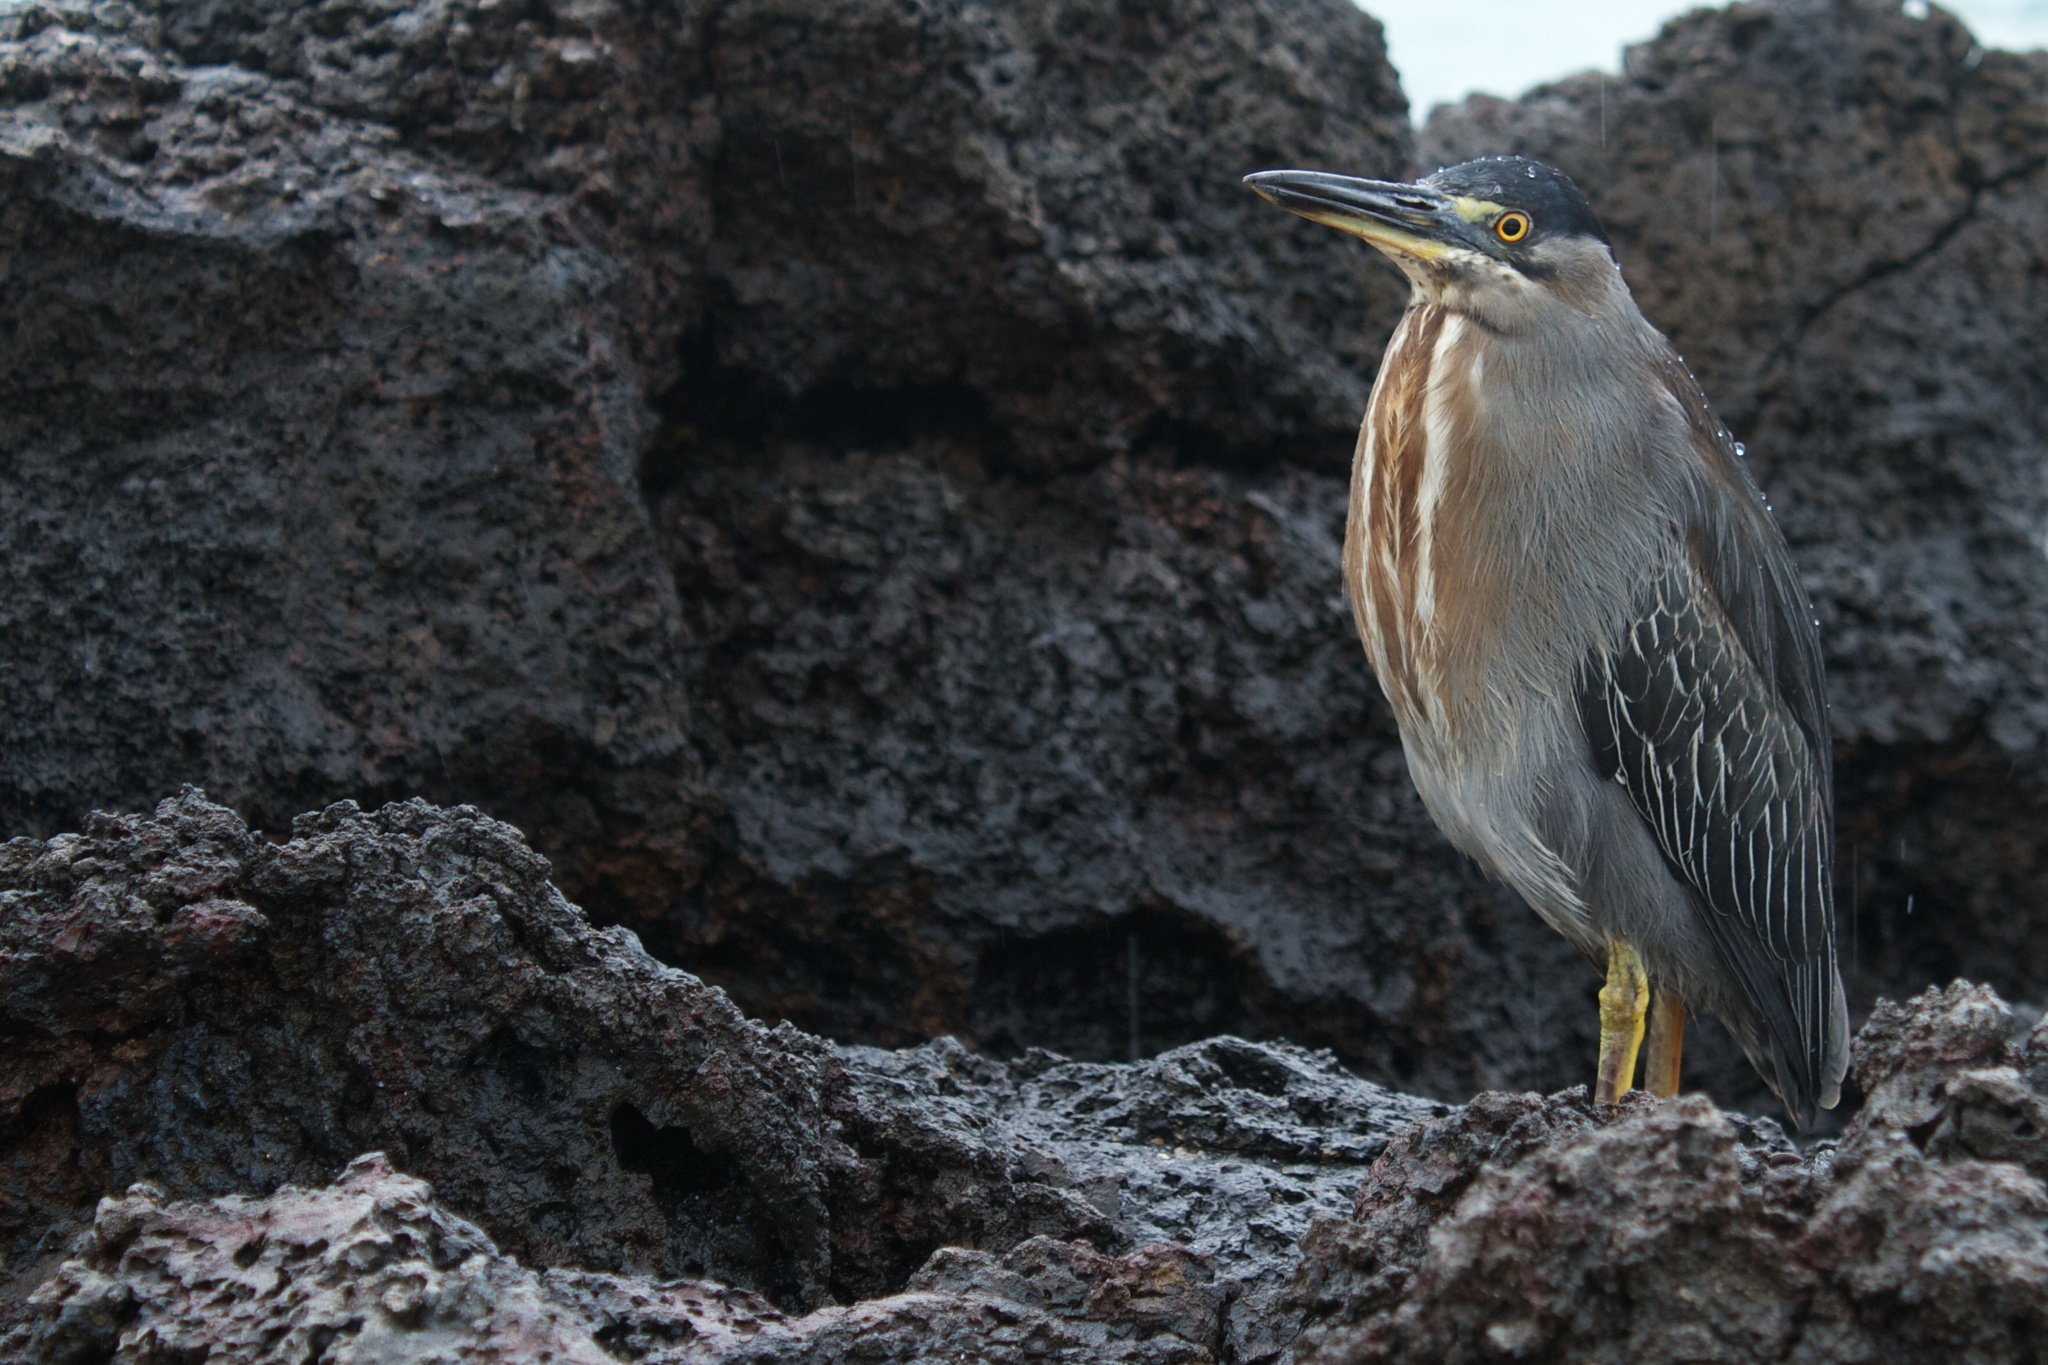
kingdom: Animalia
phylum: Chordata
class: Aves
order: Pelecaniformes
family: Ardeidae
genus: Butorides
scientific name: Butorides striata
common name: Striated heron
